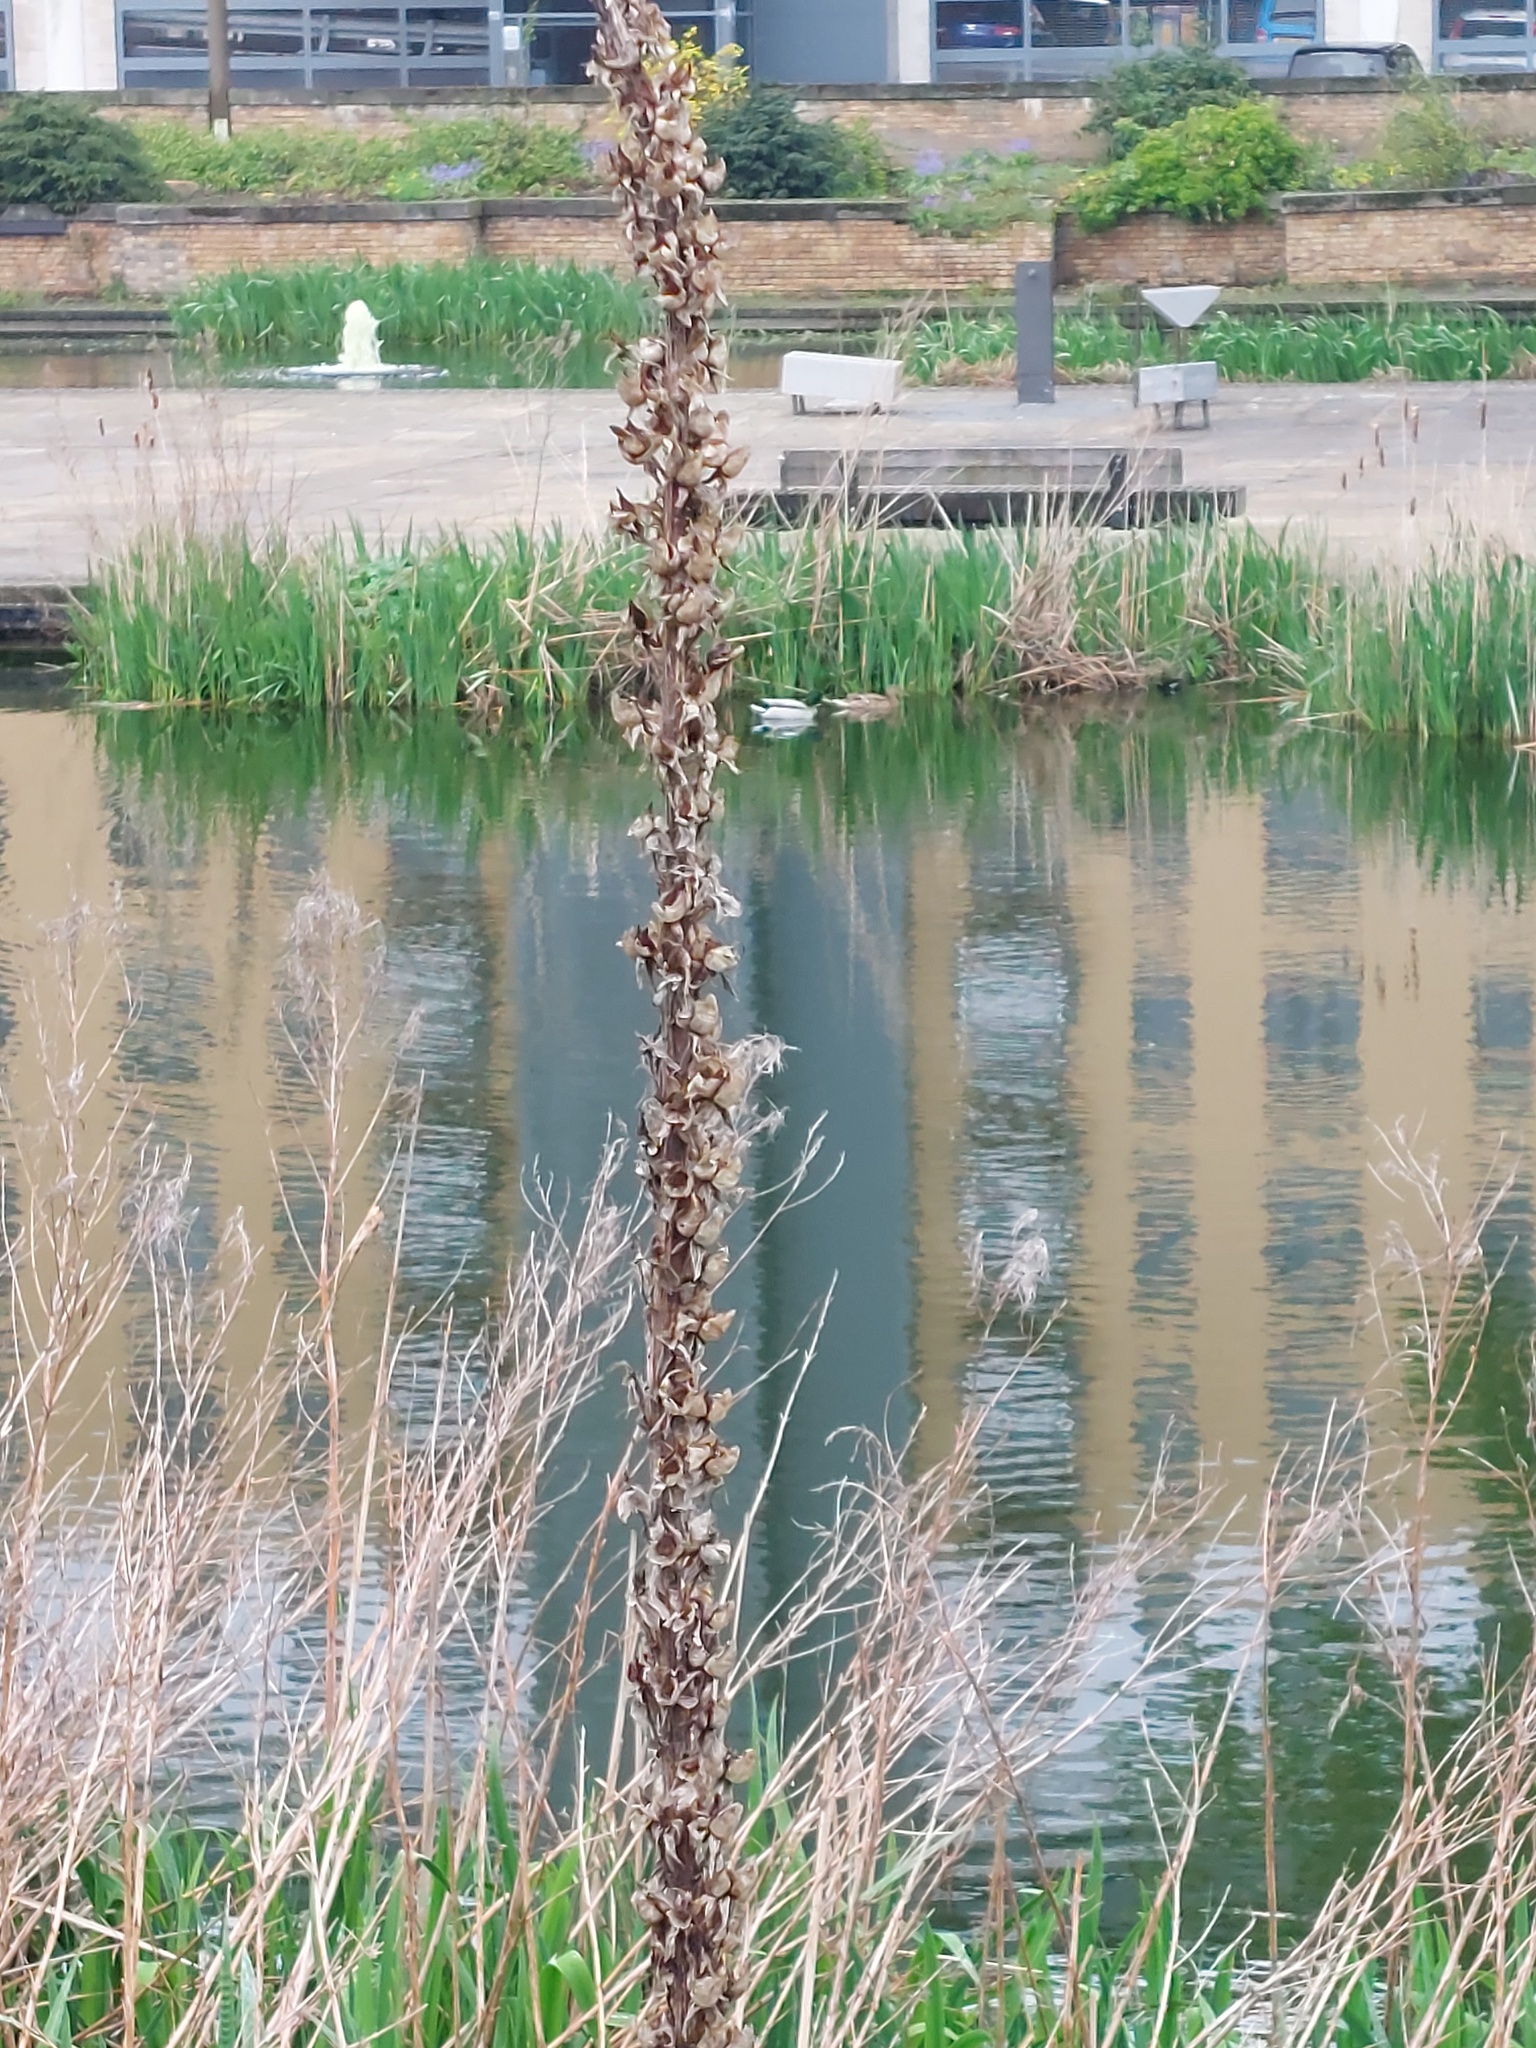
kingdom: Plantae
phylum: Tracheophyta
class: Magnoliopsida
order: Lamiales
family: Plantaginaceae
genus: Digitalis
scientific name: Digitalis purpurea
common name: Foxglove
